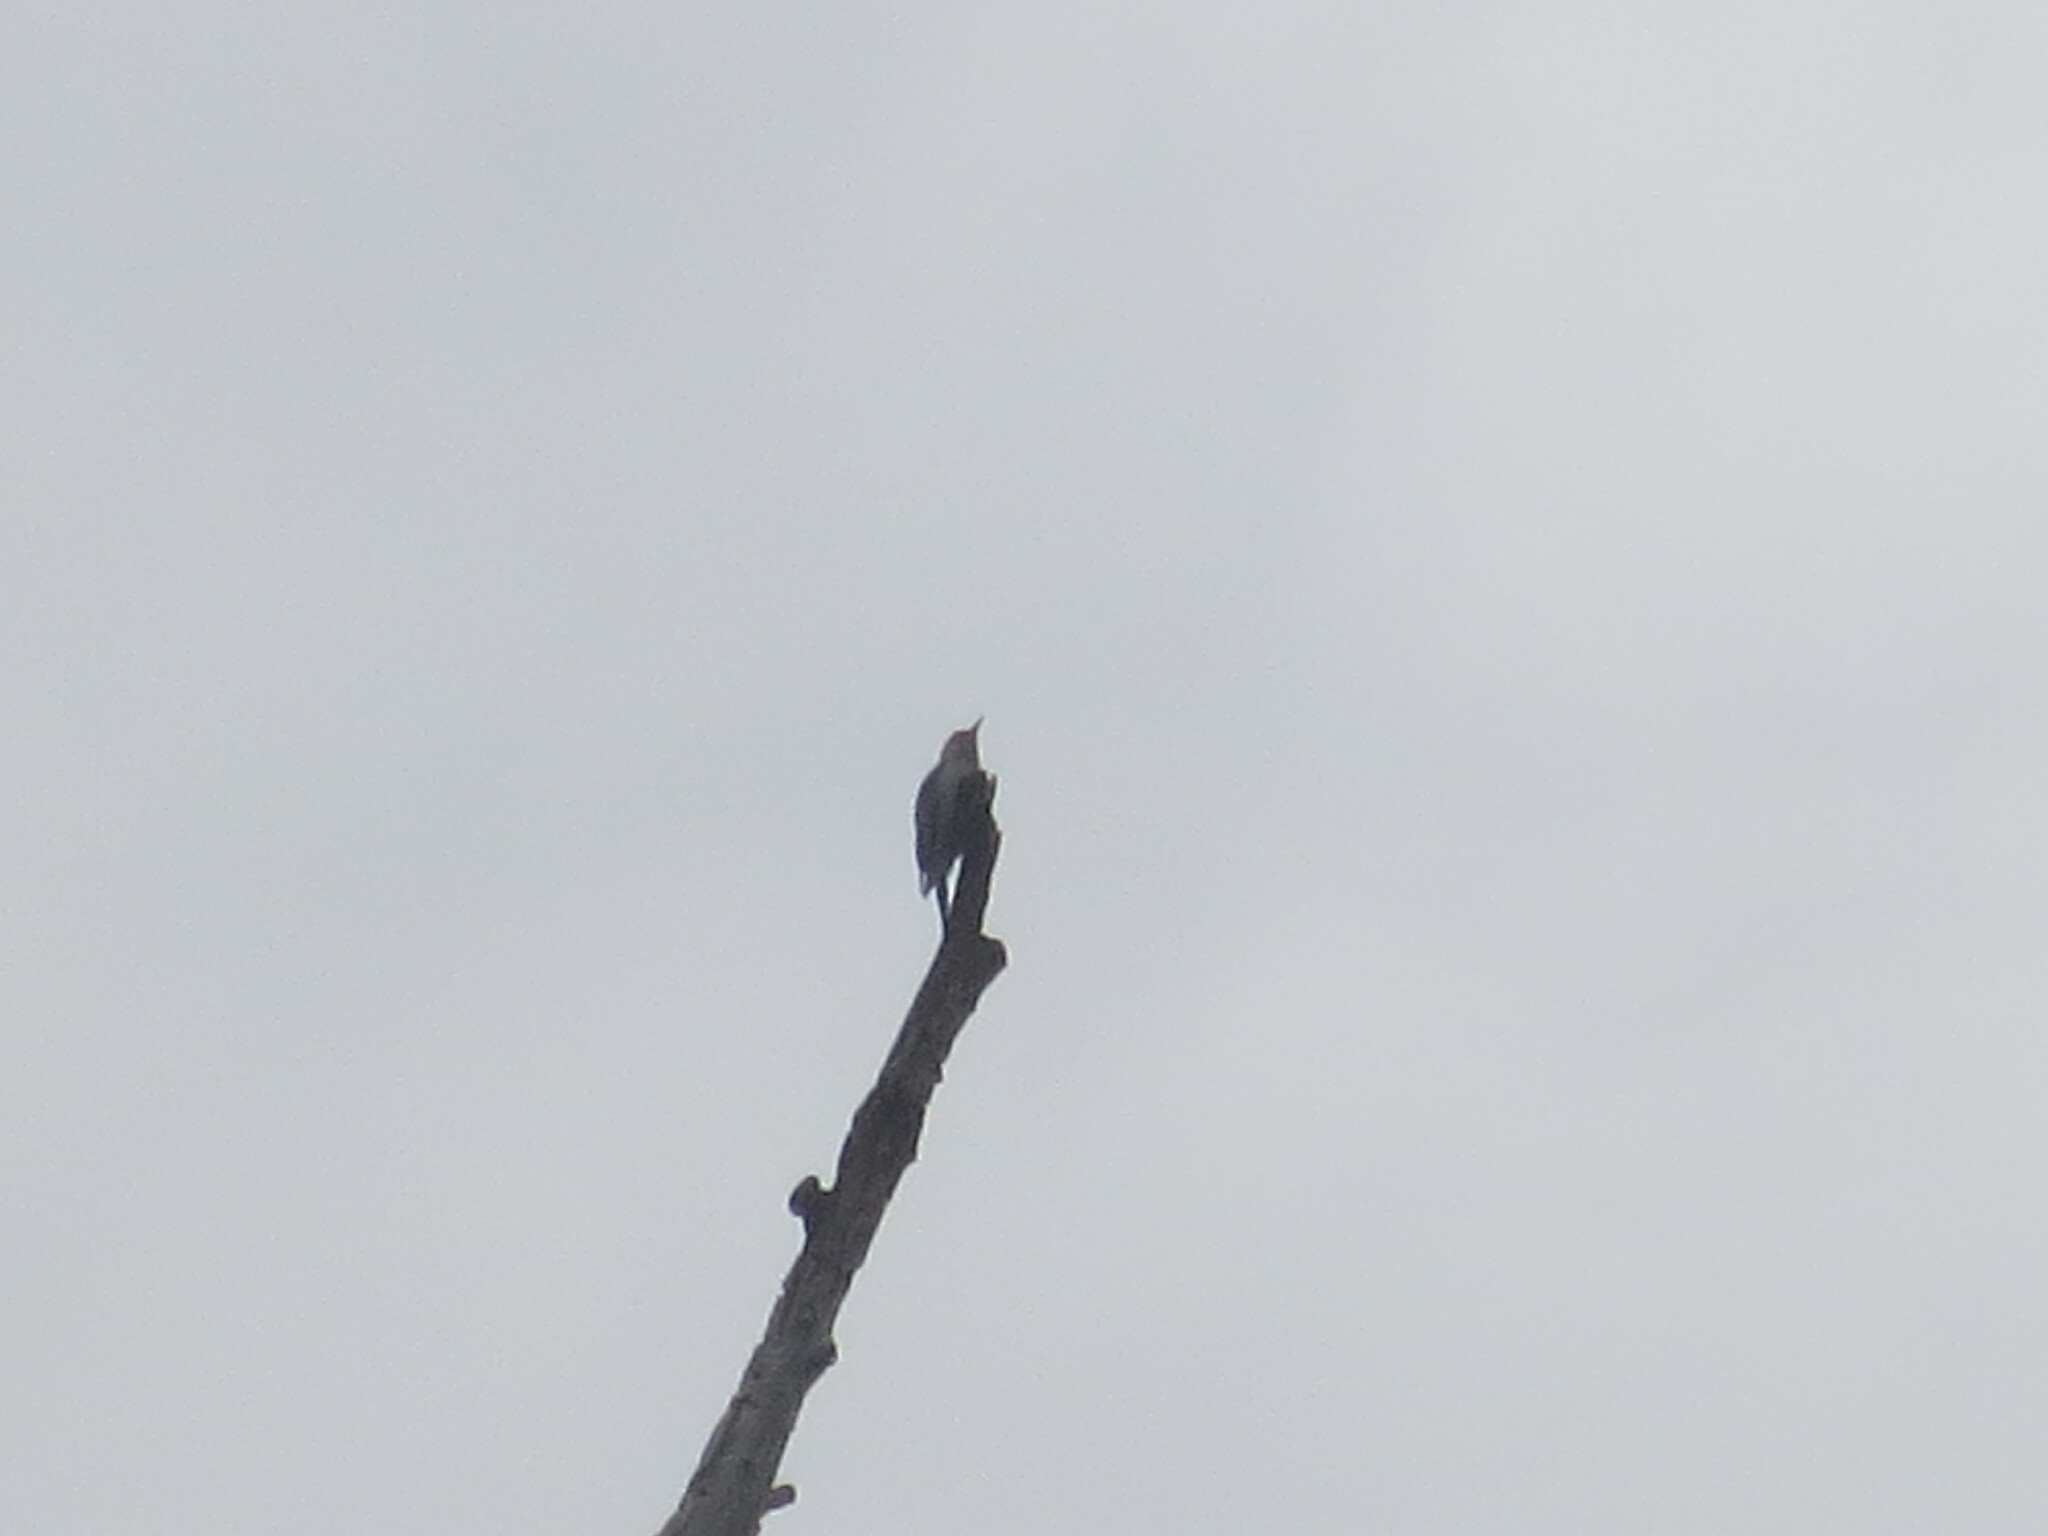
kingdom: Animalia
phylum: Chordata
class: Aves
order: Piciformes
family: Picidae
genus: Melanerpes
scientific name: Melanerpes carolinus
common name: Red-bellied woodpecker
